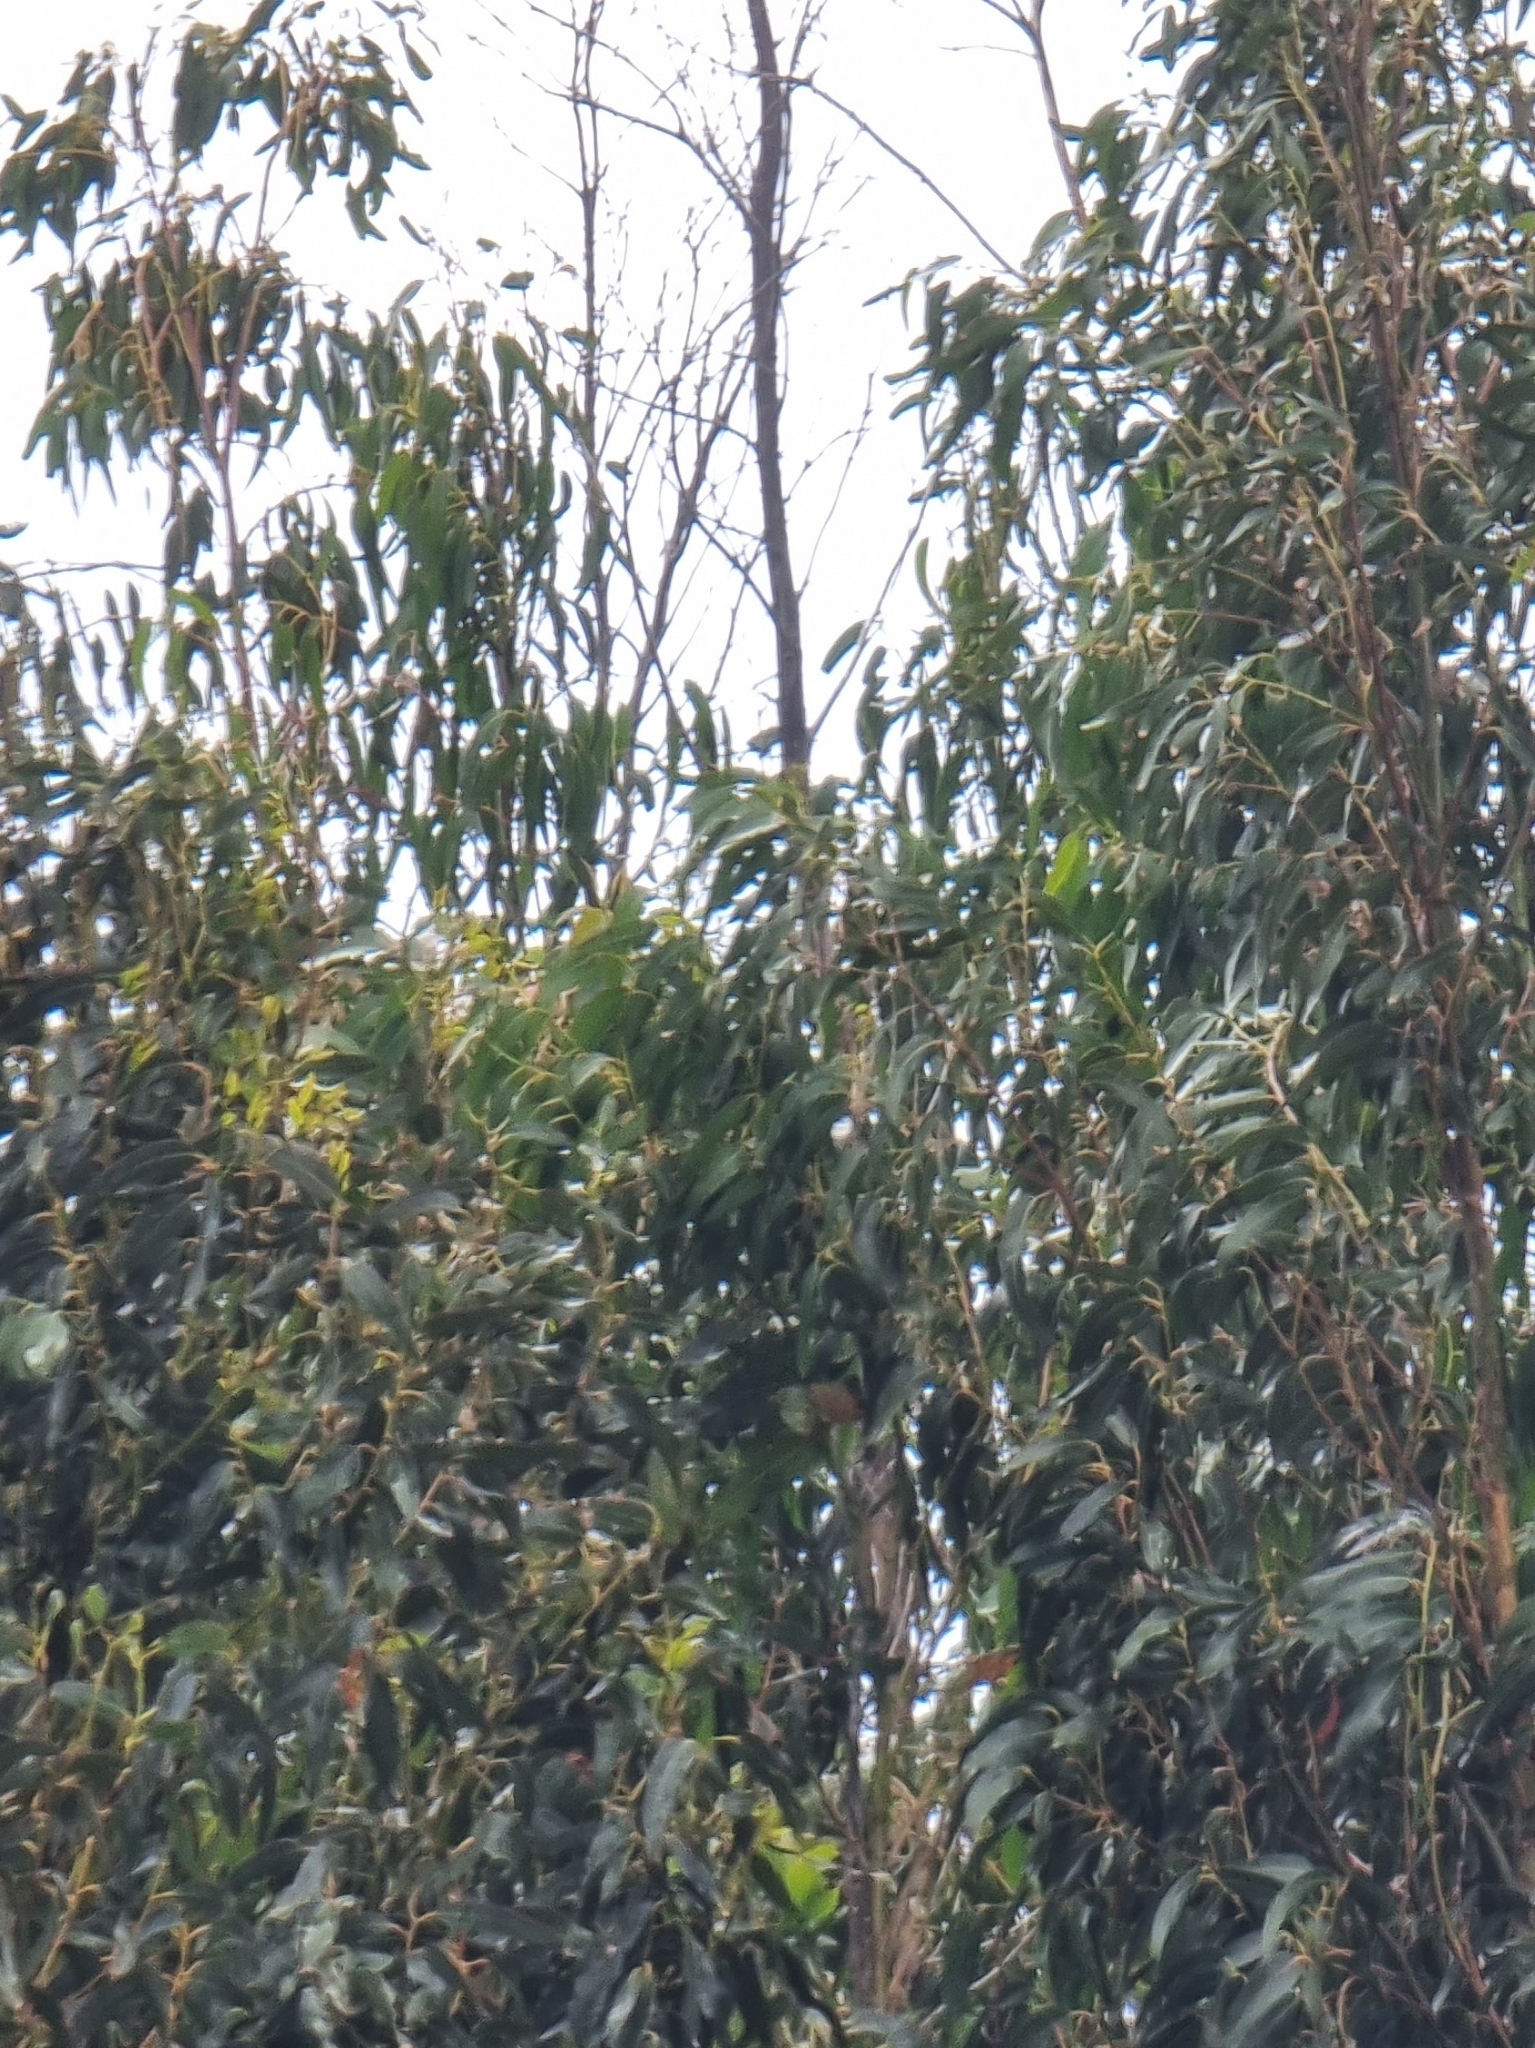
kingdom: Plantae
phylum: Tracheophyta
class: Magnoliopsida
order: Myrtales
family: Myrtaceae
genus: Eucalyptus
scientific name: Eucalyptus globulus
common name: Southern blue-gum
